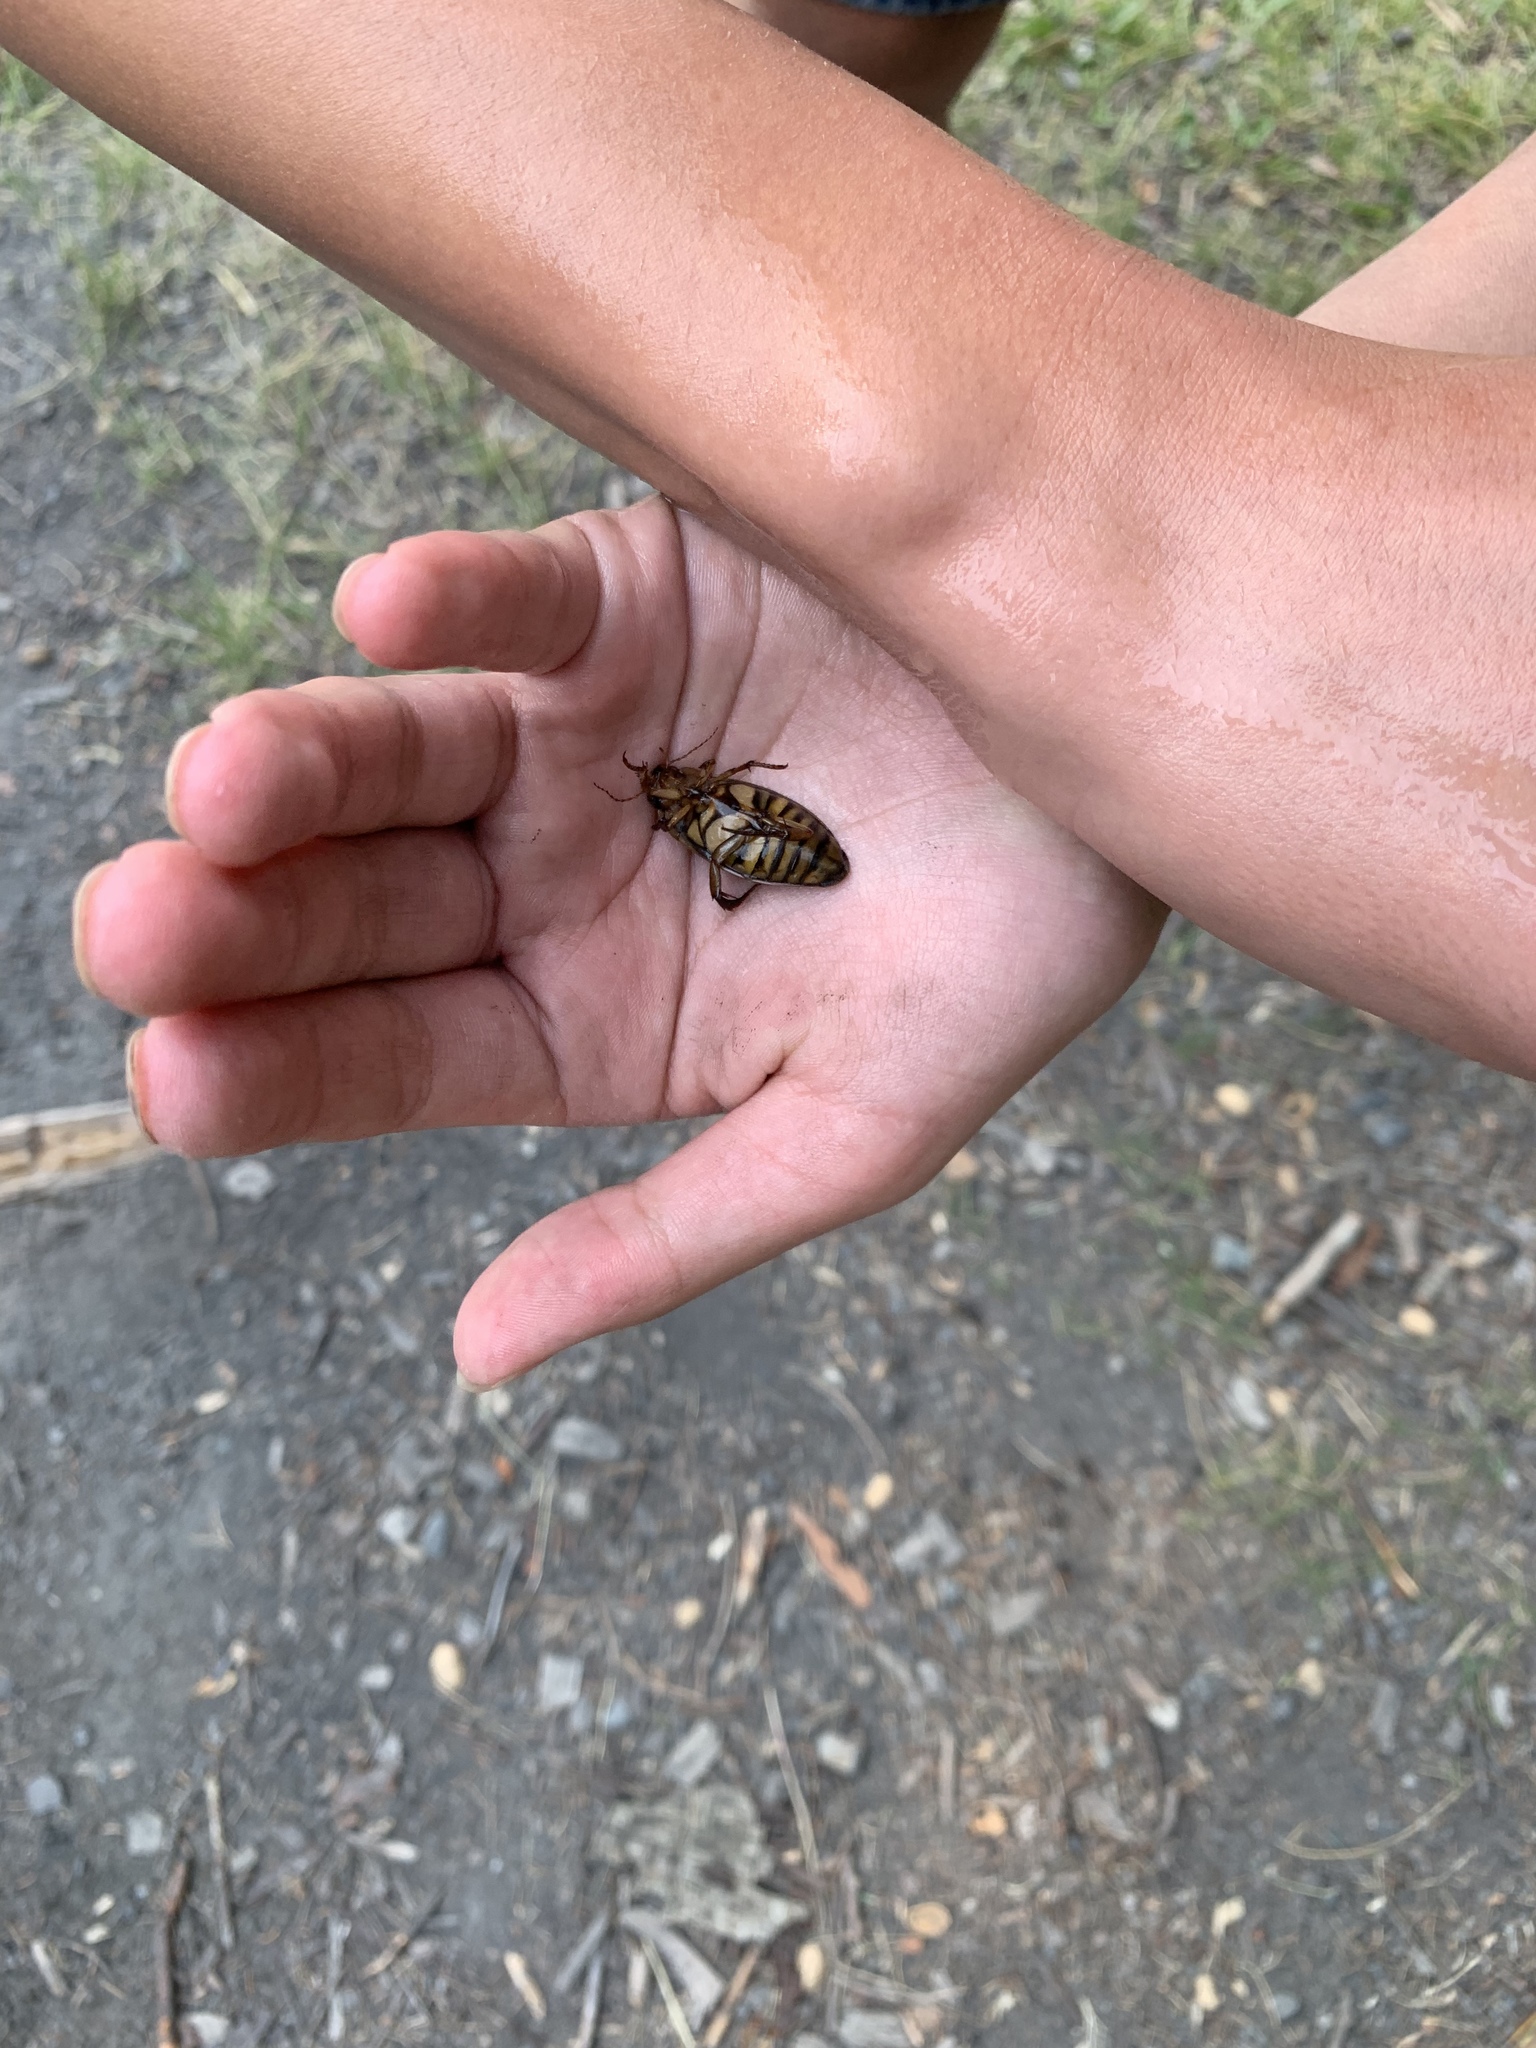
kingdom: Animalia
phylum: Arthropoda
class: Insecta
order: Coleoptera
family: Dytiscidae
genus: Dytiscus
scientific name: Dytiscus
